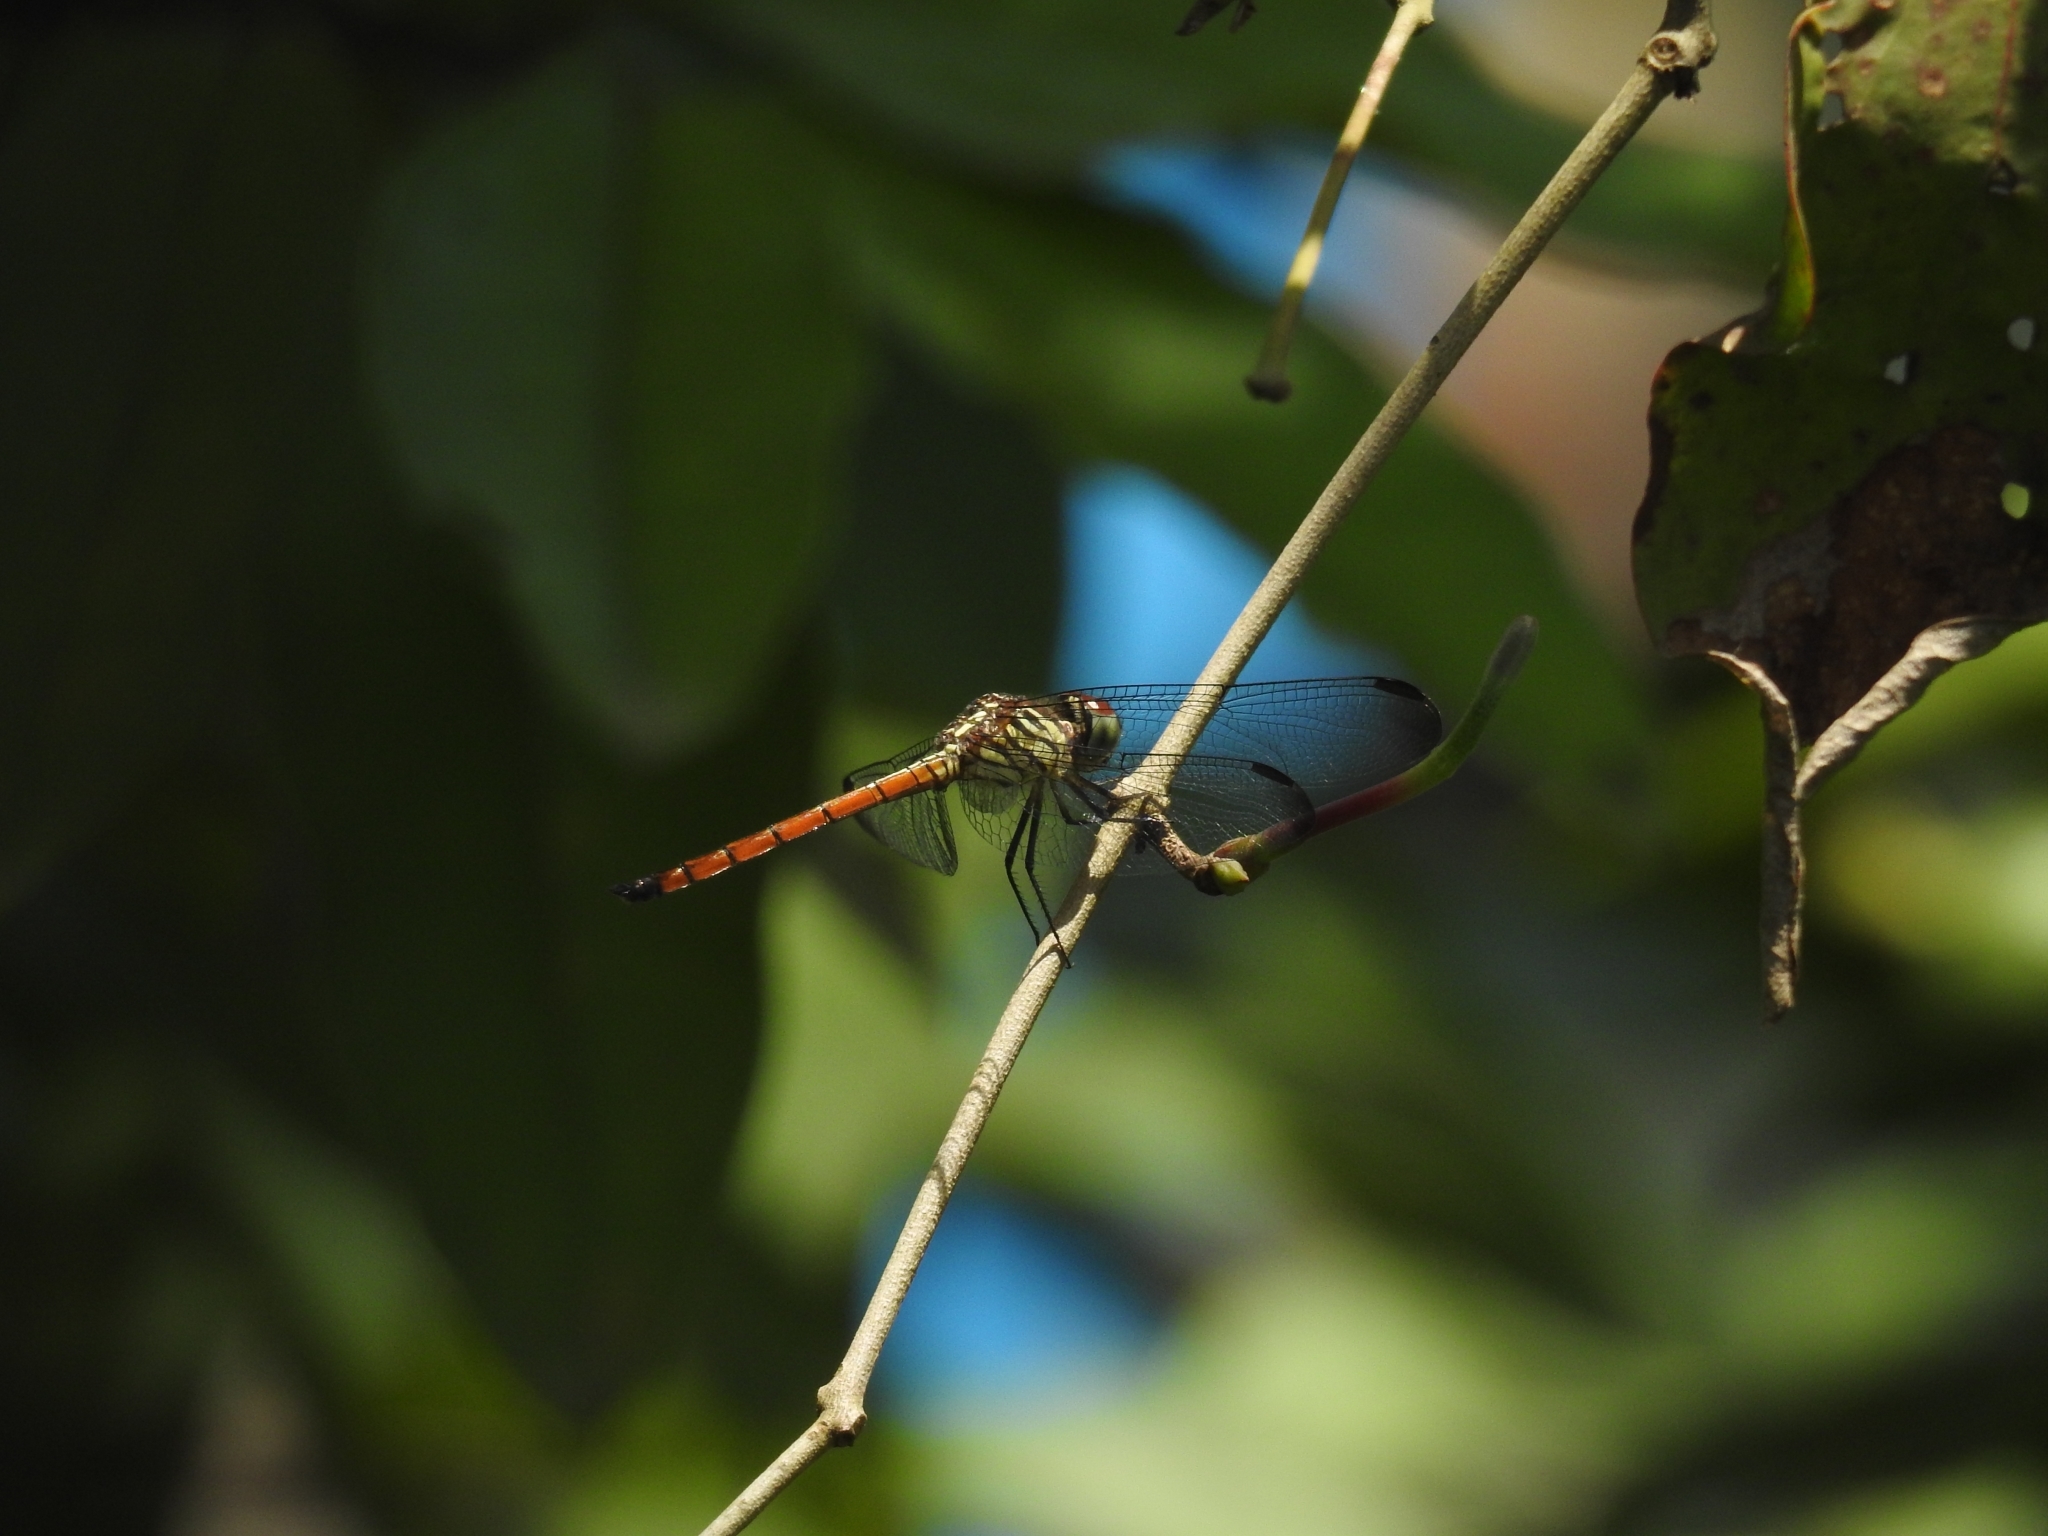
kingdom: Animalia
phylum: Arthropoda
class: Insecta
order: Odonata
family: Libellulidae
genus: Lathrecista
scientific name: Lathrecista asiatica
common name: Scarlet grenadier
